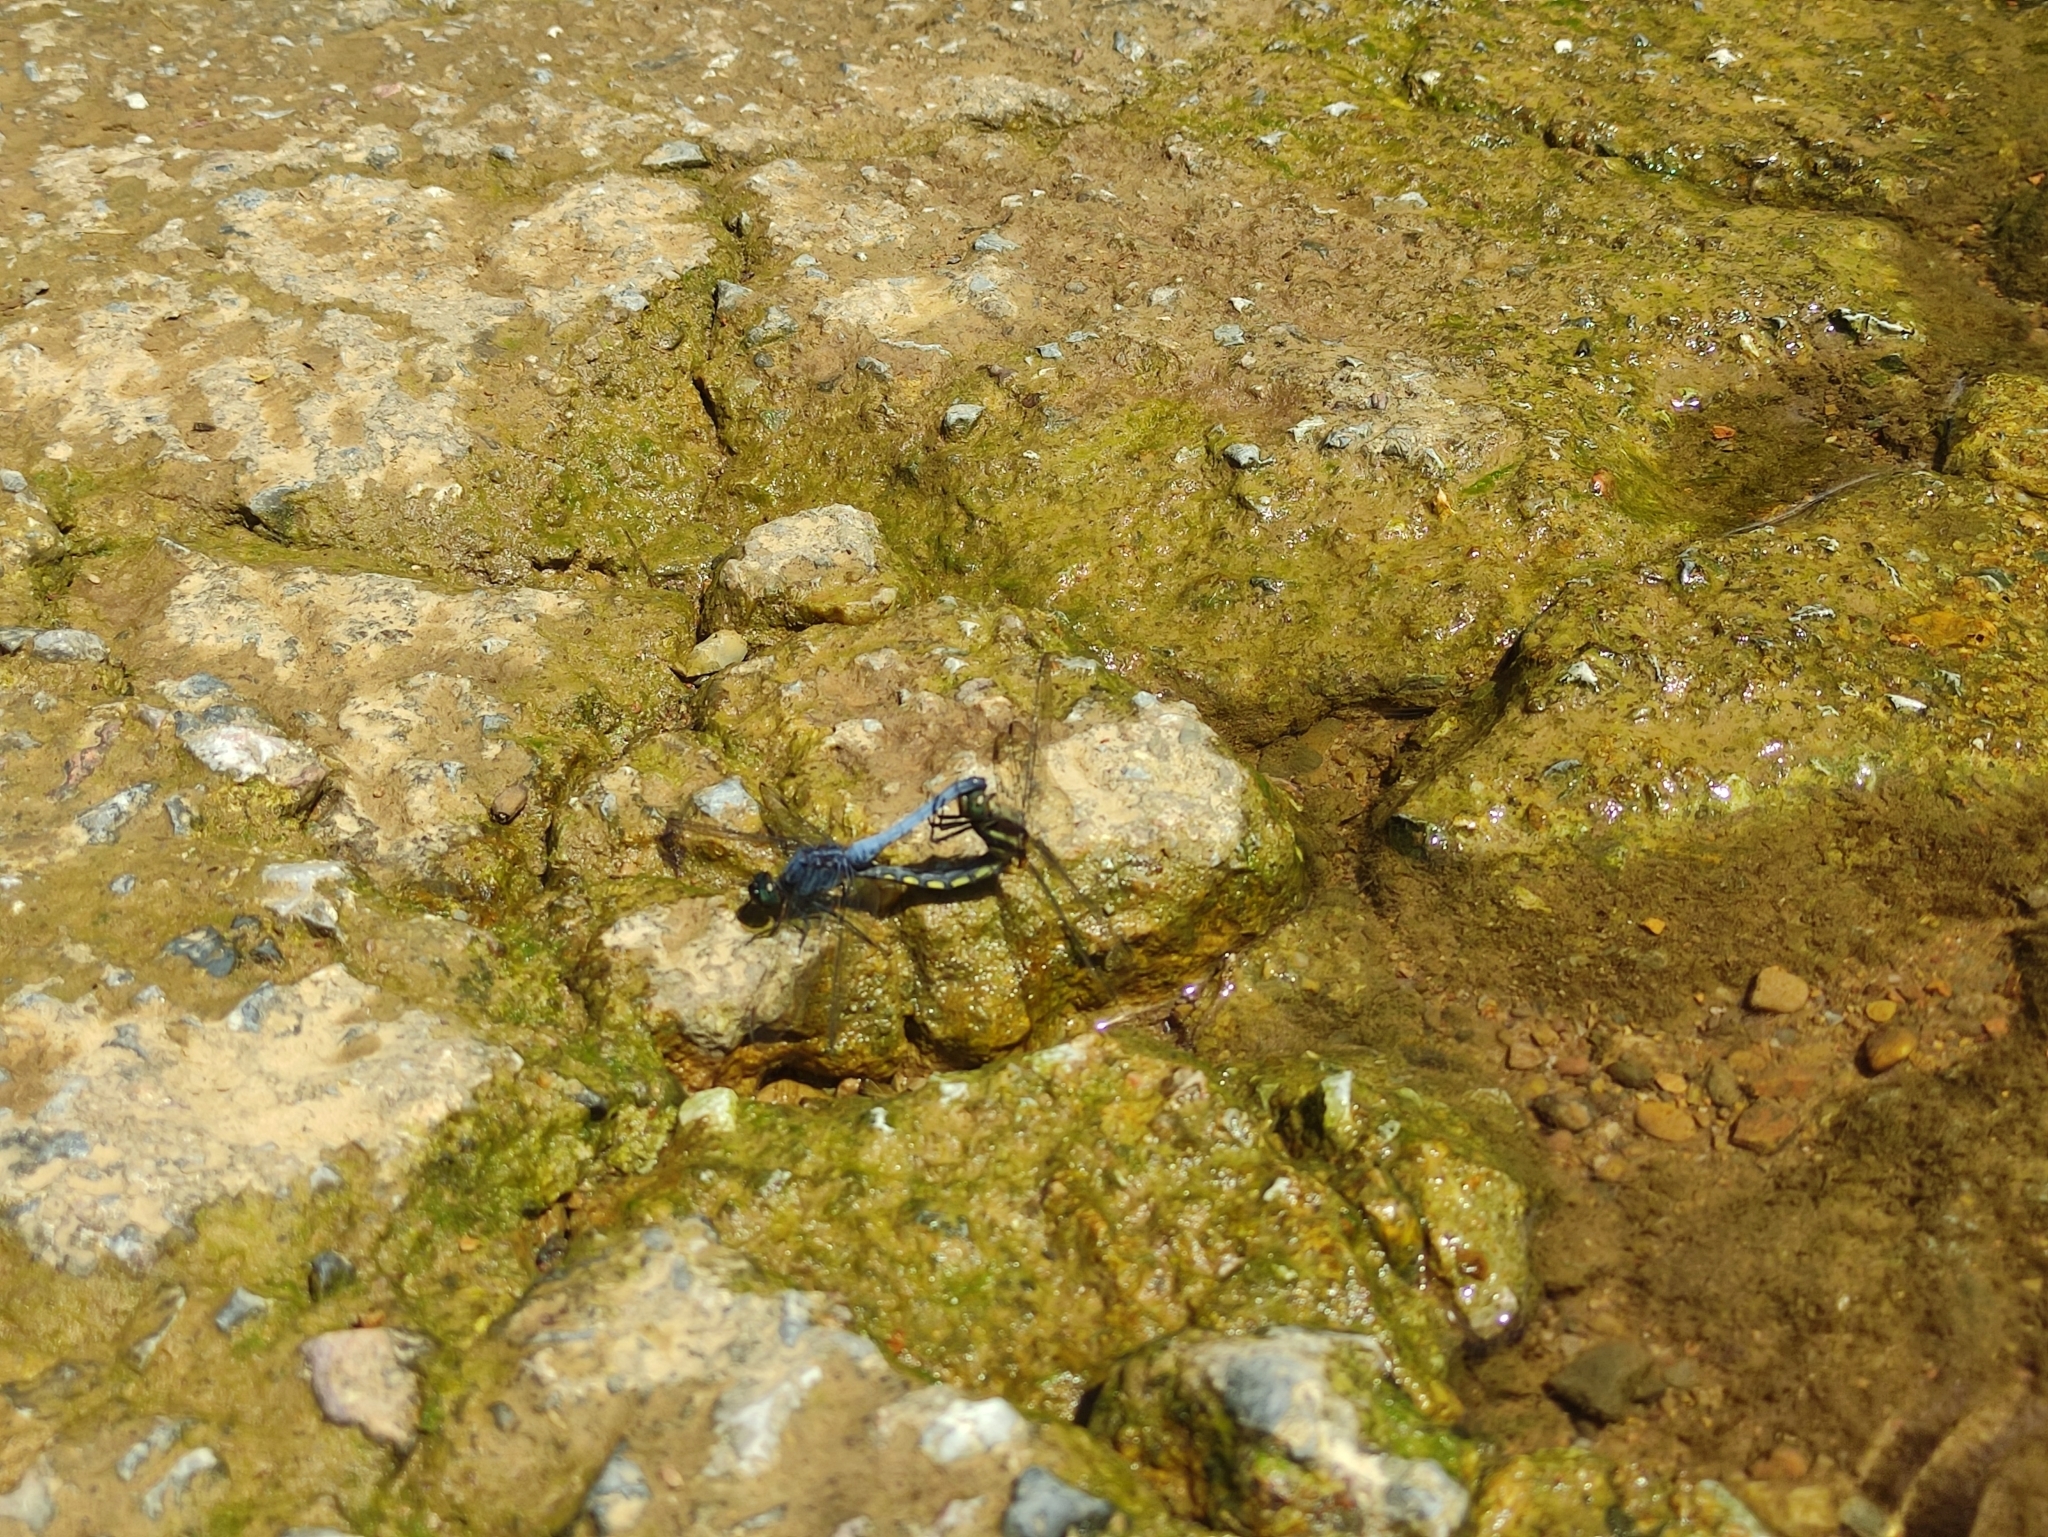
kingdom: Animalia
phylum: Arthropoda
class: Insecta
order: Odonata
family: Libellulidae
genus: Trithemis
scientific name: Trithemis festiva
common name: Indigo dropwing
